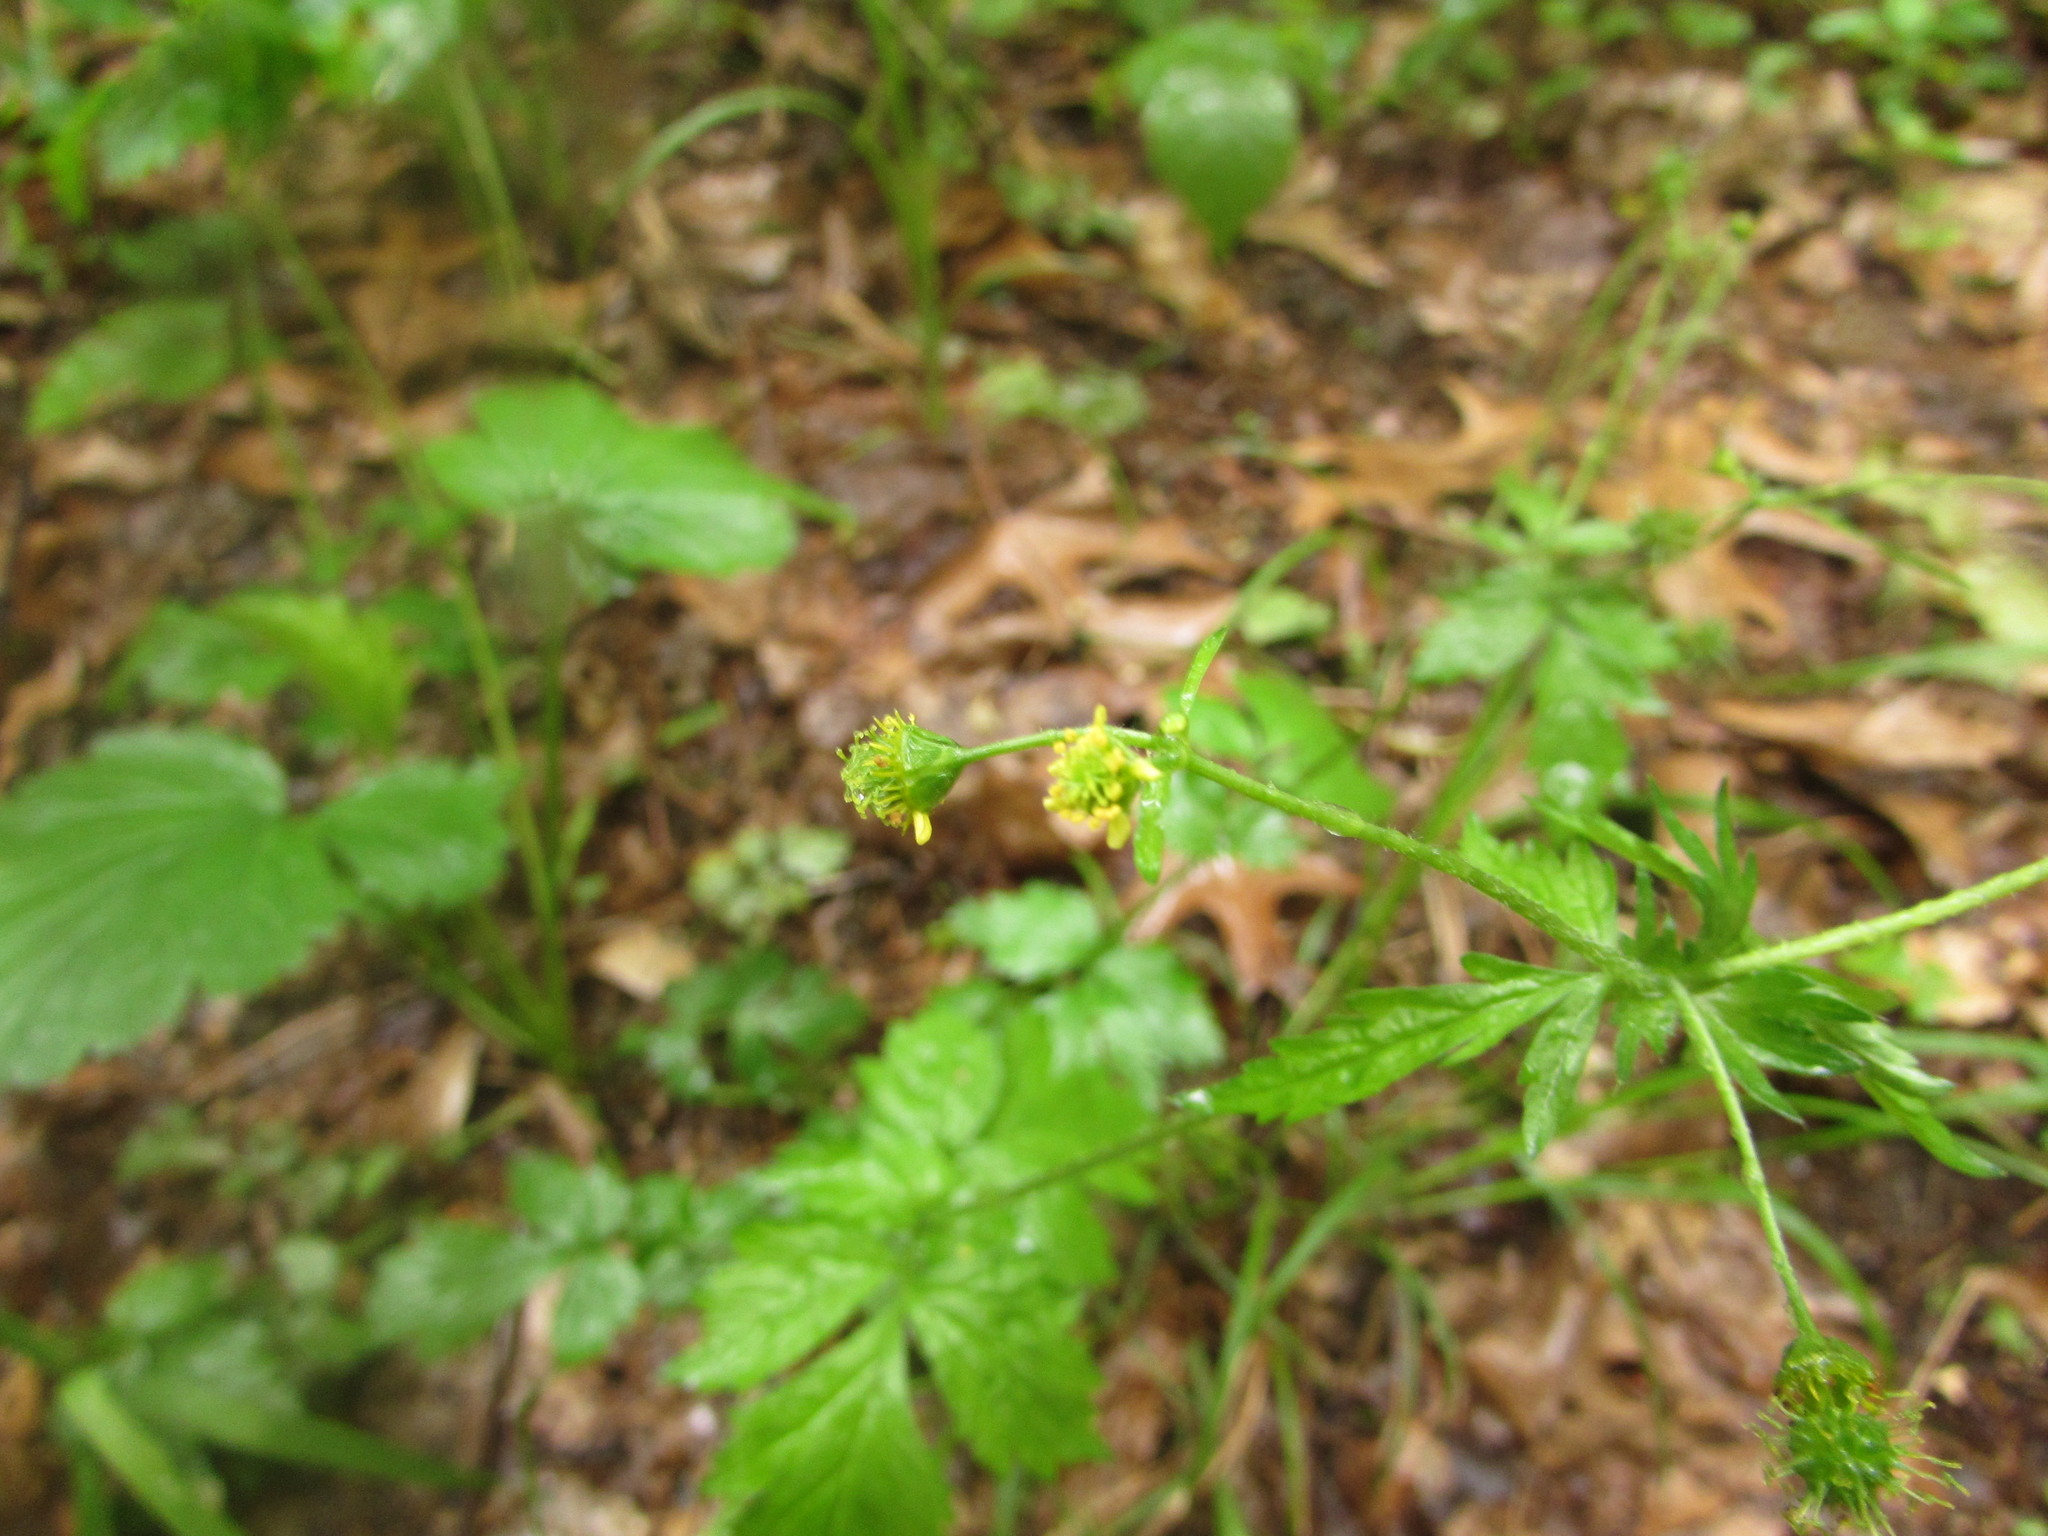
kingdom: Plantae
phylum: Tracheophyta
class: Magnoliopsida
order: Rosales
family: Rosaceae
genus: Geum
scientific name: Geum vernum
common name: Spring avens
